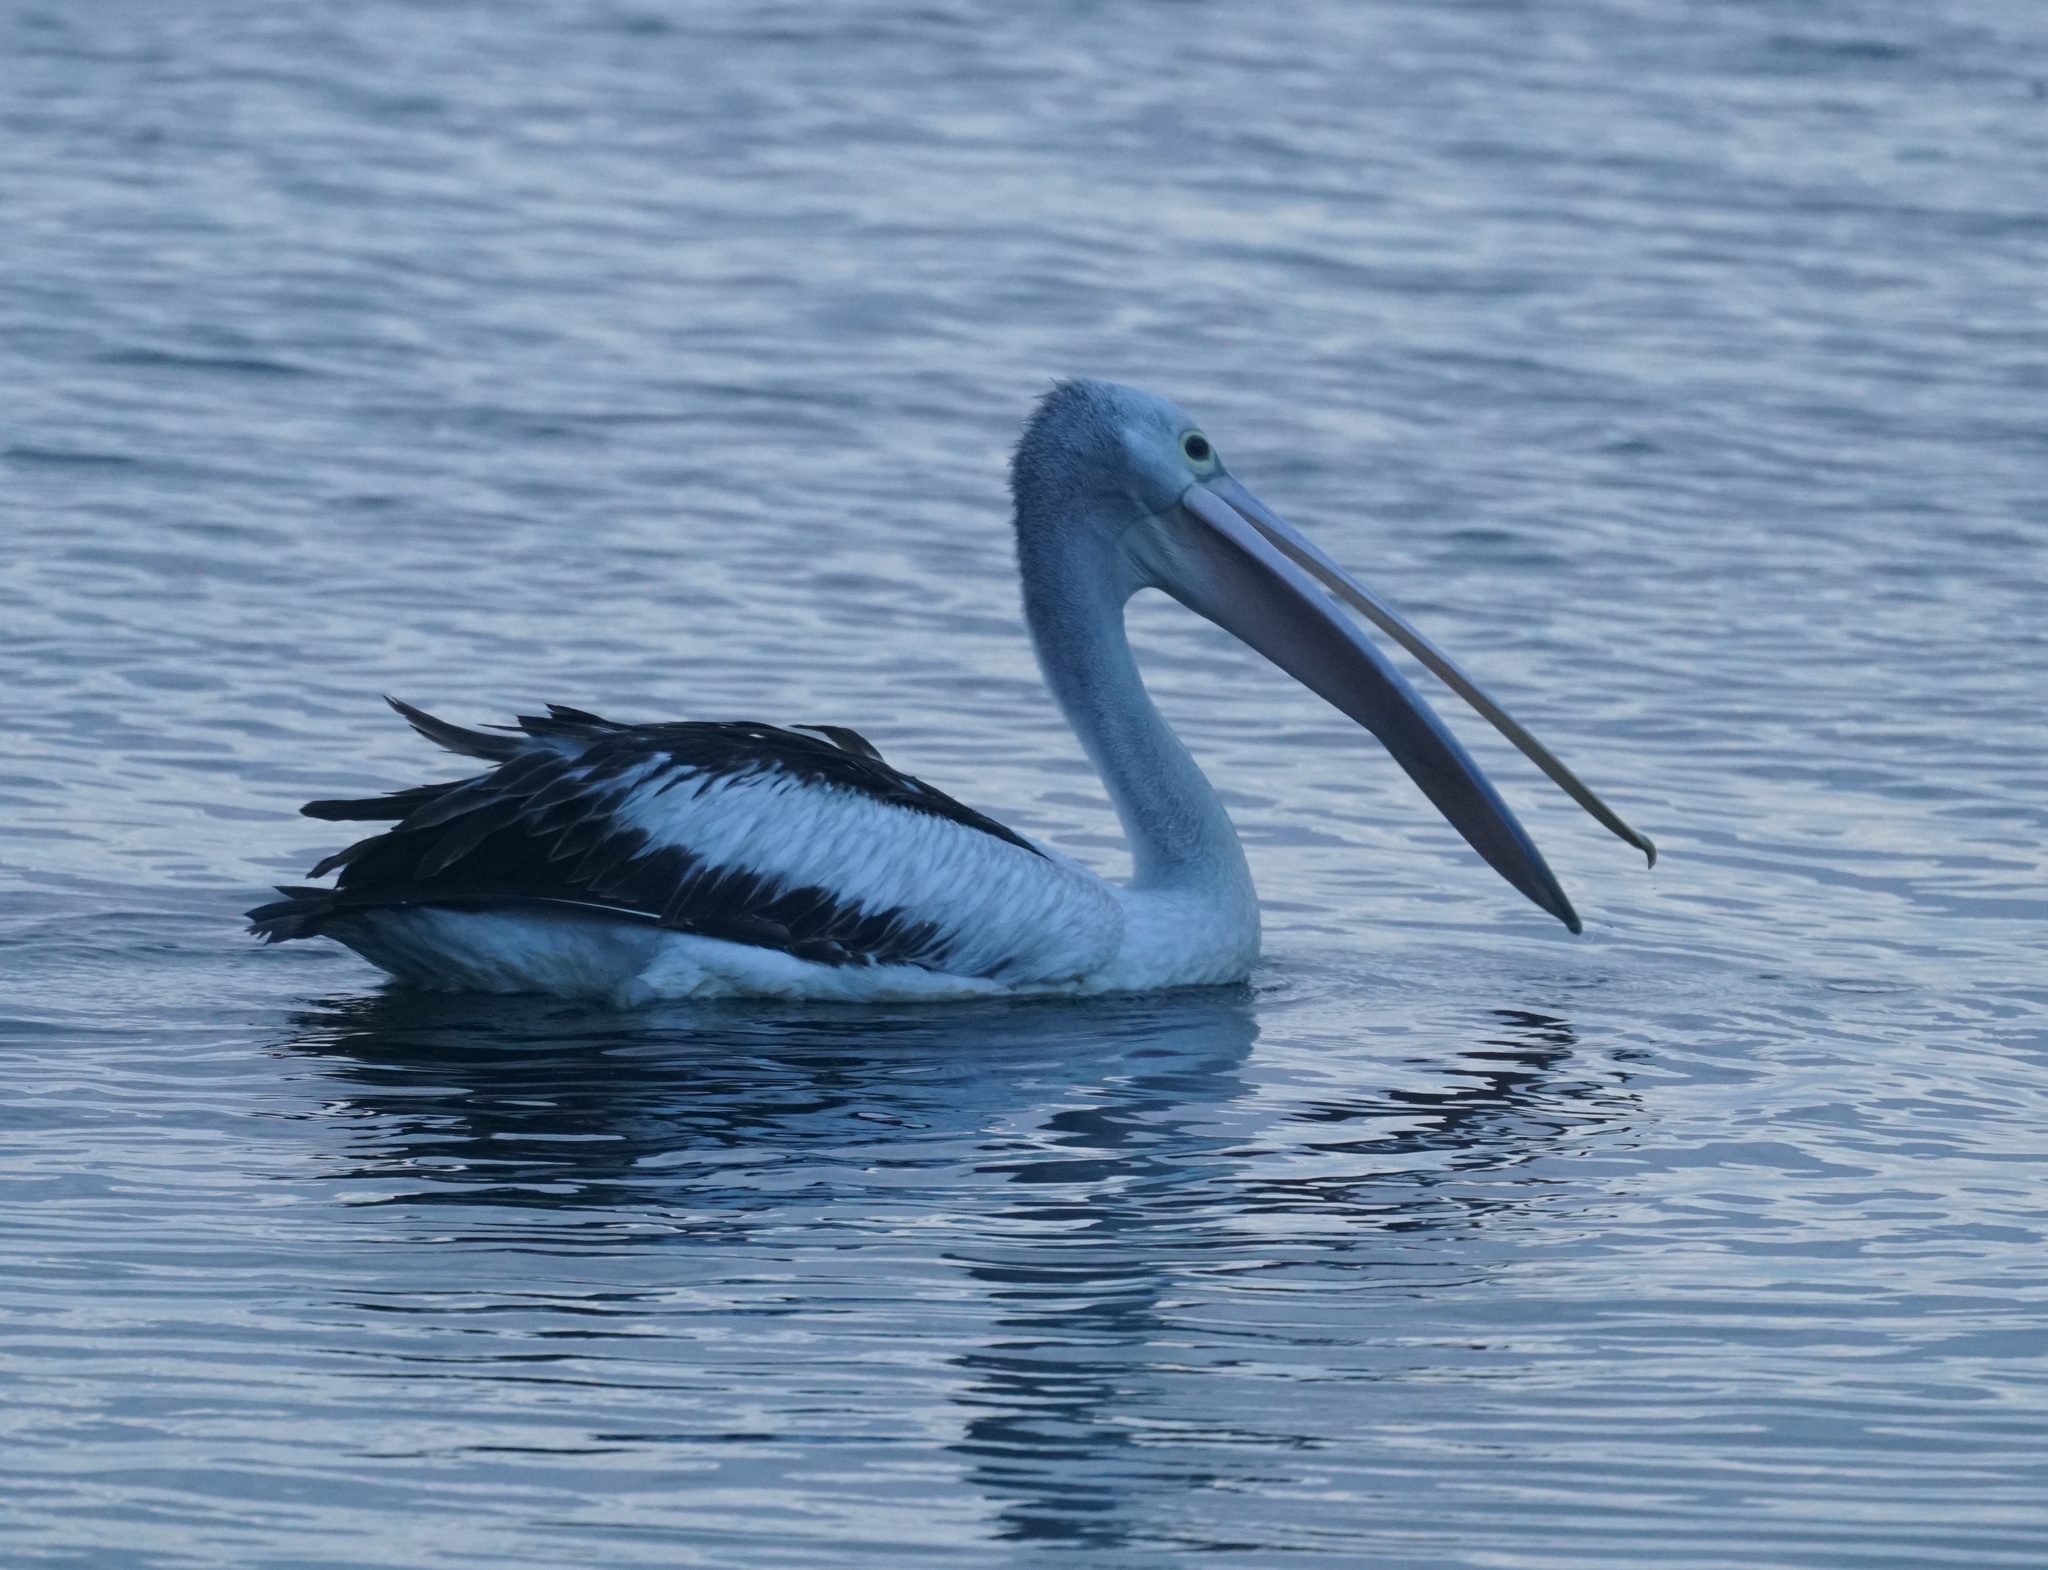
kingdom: Animalia
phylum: Chordata
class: Aves
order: Pelecaniformes
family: Pelecanidae
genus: Pelecanus
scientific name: Pelecanus conspicillatus
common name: Australian pelican
